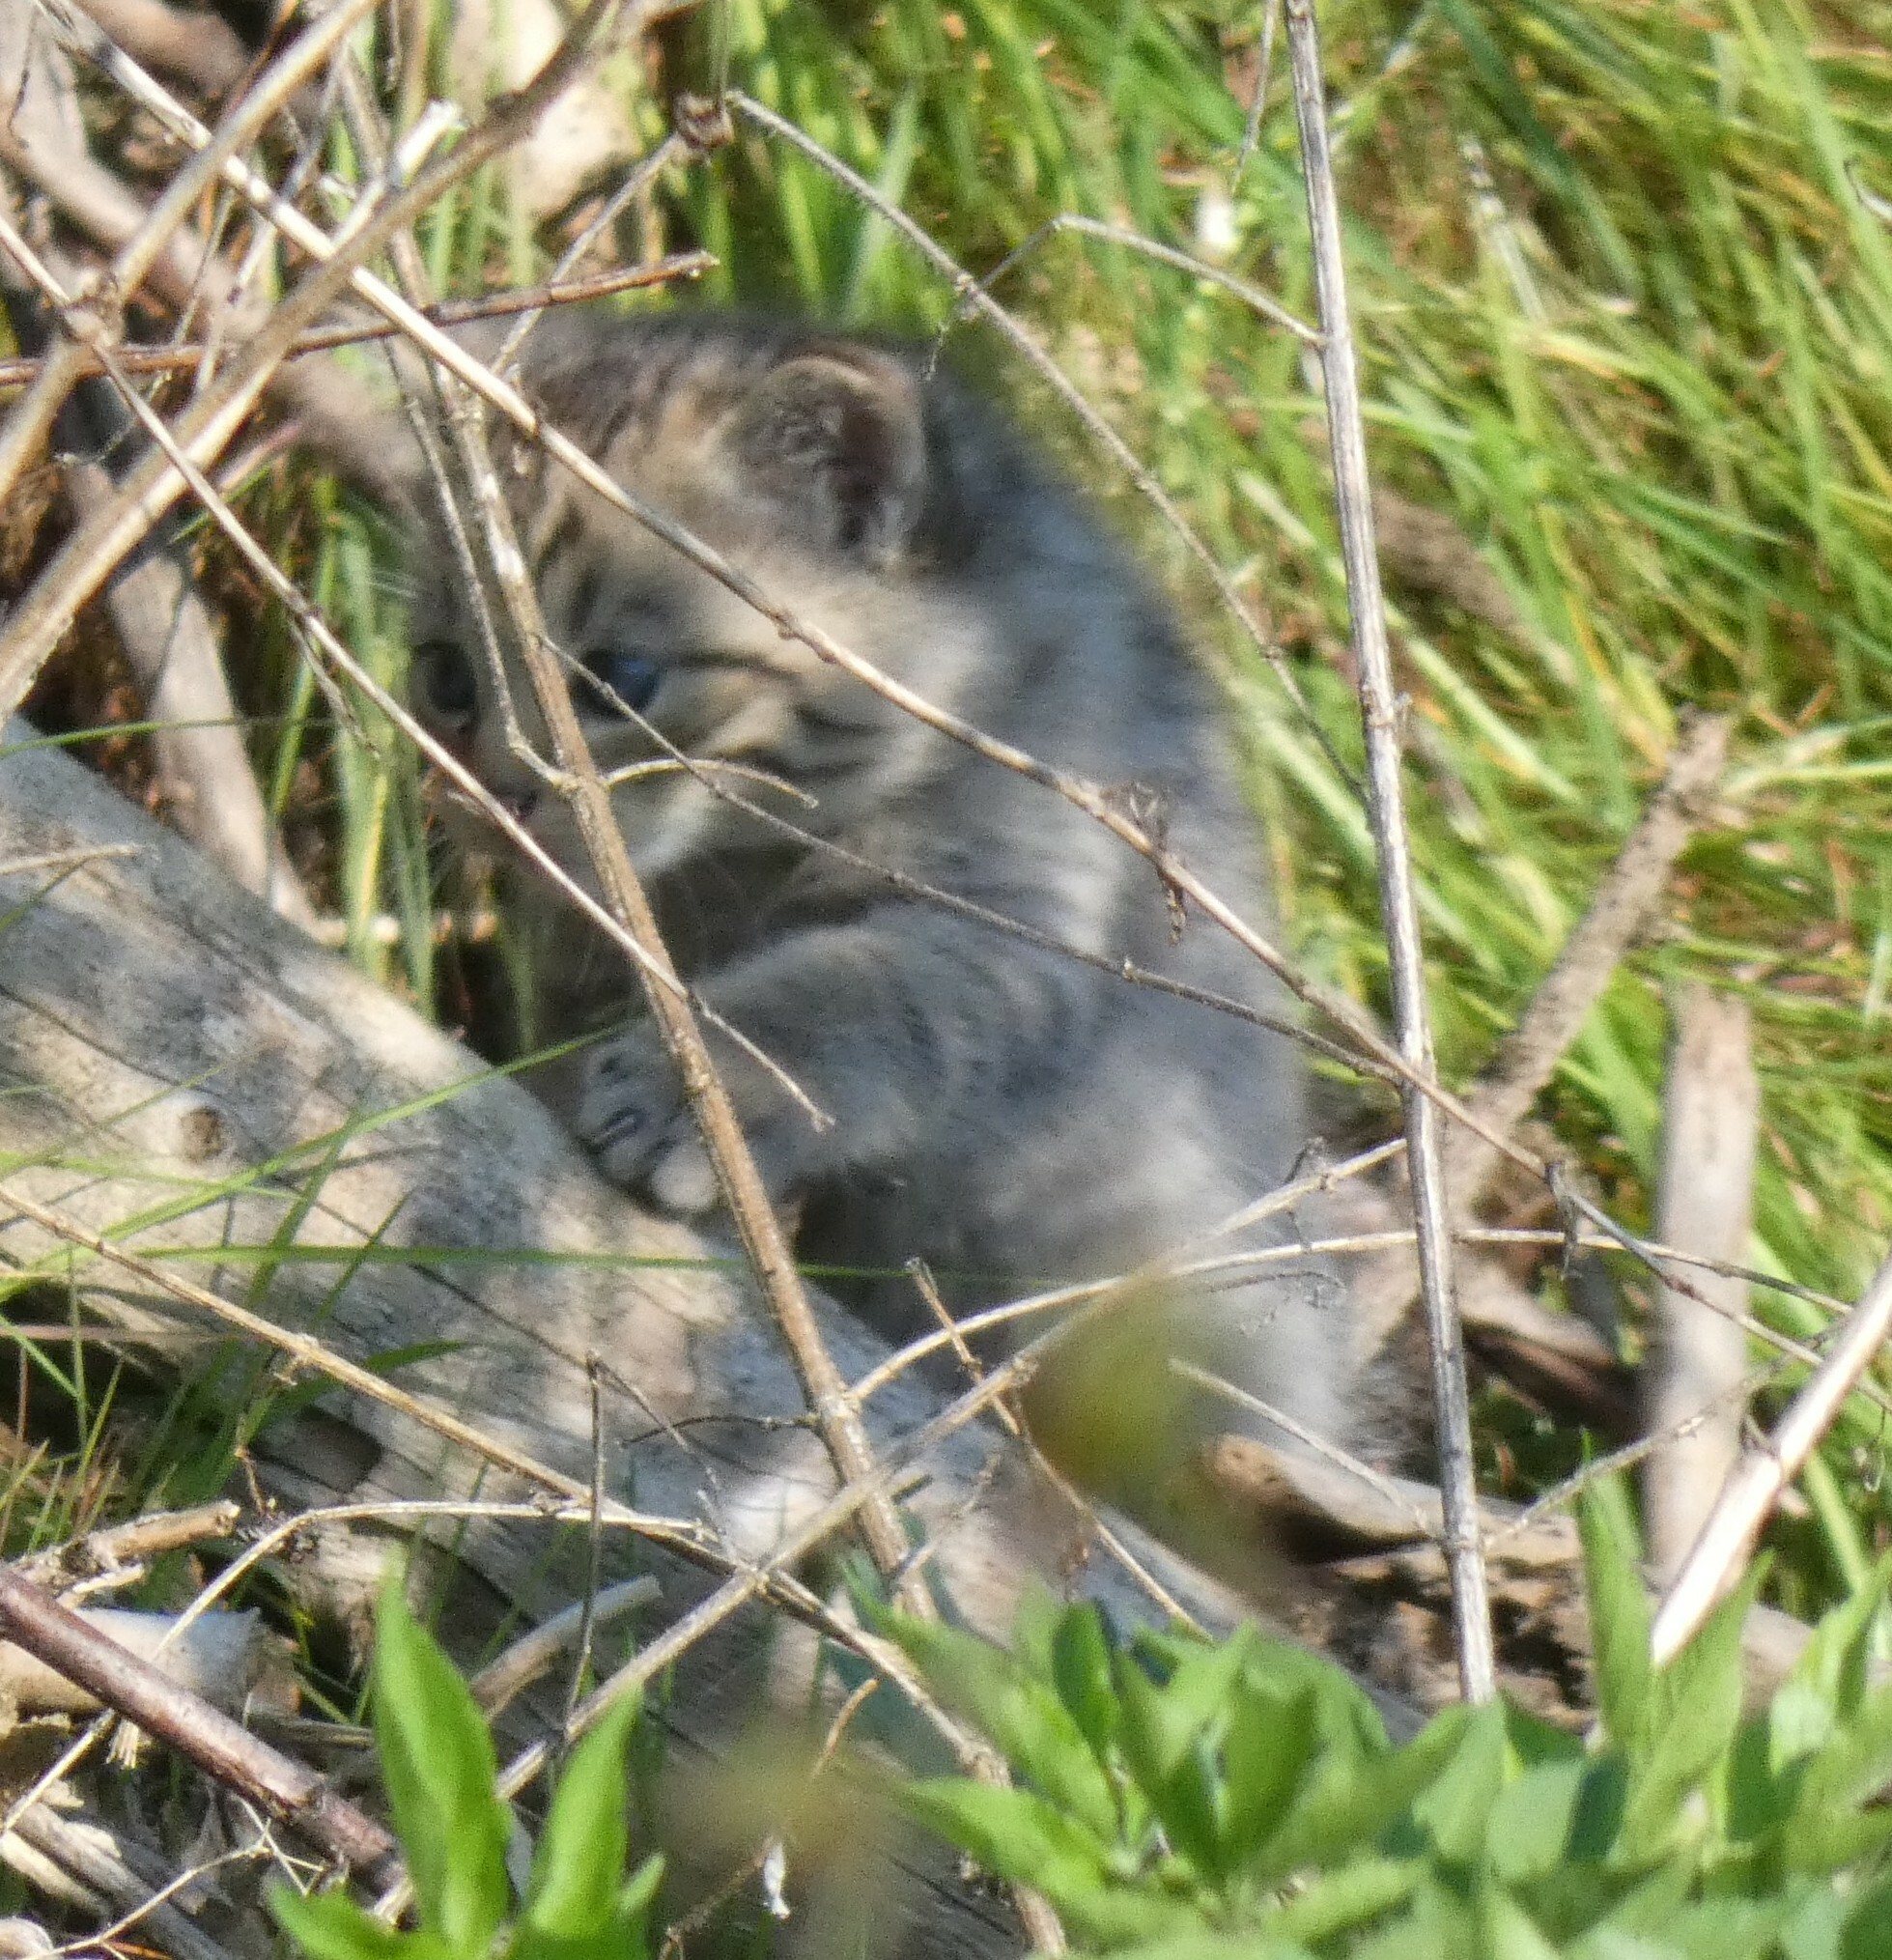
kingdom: Animalia
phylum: Chordata
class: Mammalia
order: Carnivora
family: Felidae
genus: Felis
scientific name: Felis silvestris
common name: Wildcat
